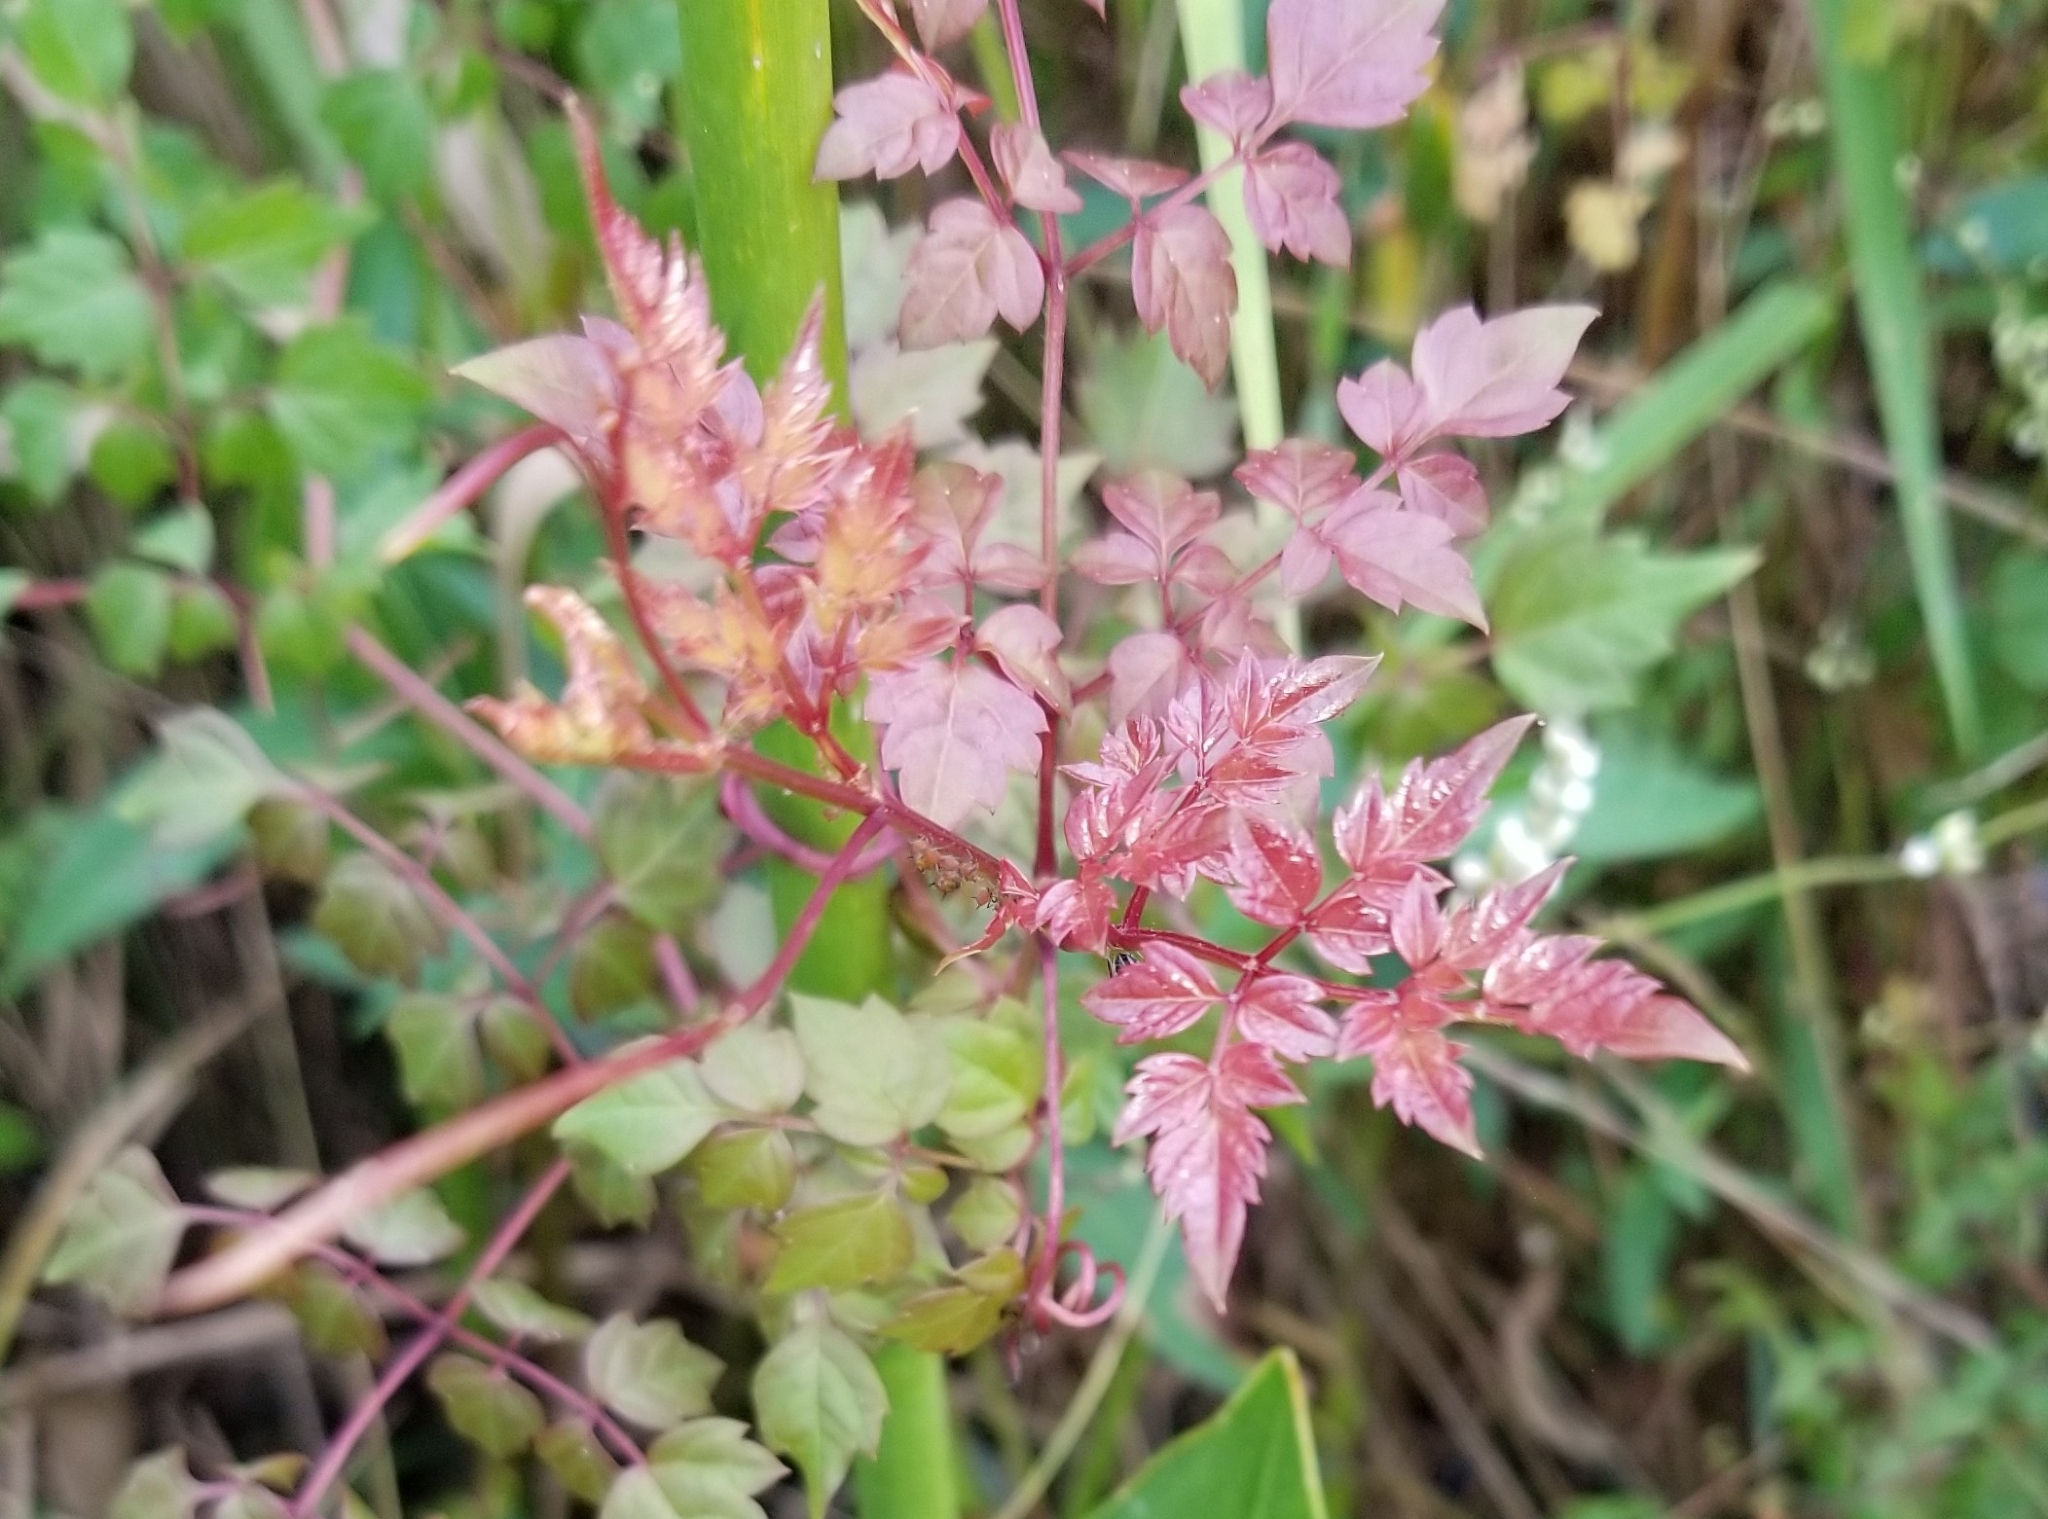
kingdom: Plantae
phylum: Tracheophyta
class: Magnoliopsida
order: Vitales
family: Vitaceae
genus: Nekemias
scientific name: Nekemias arborea
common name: Peppervine
